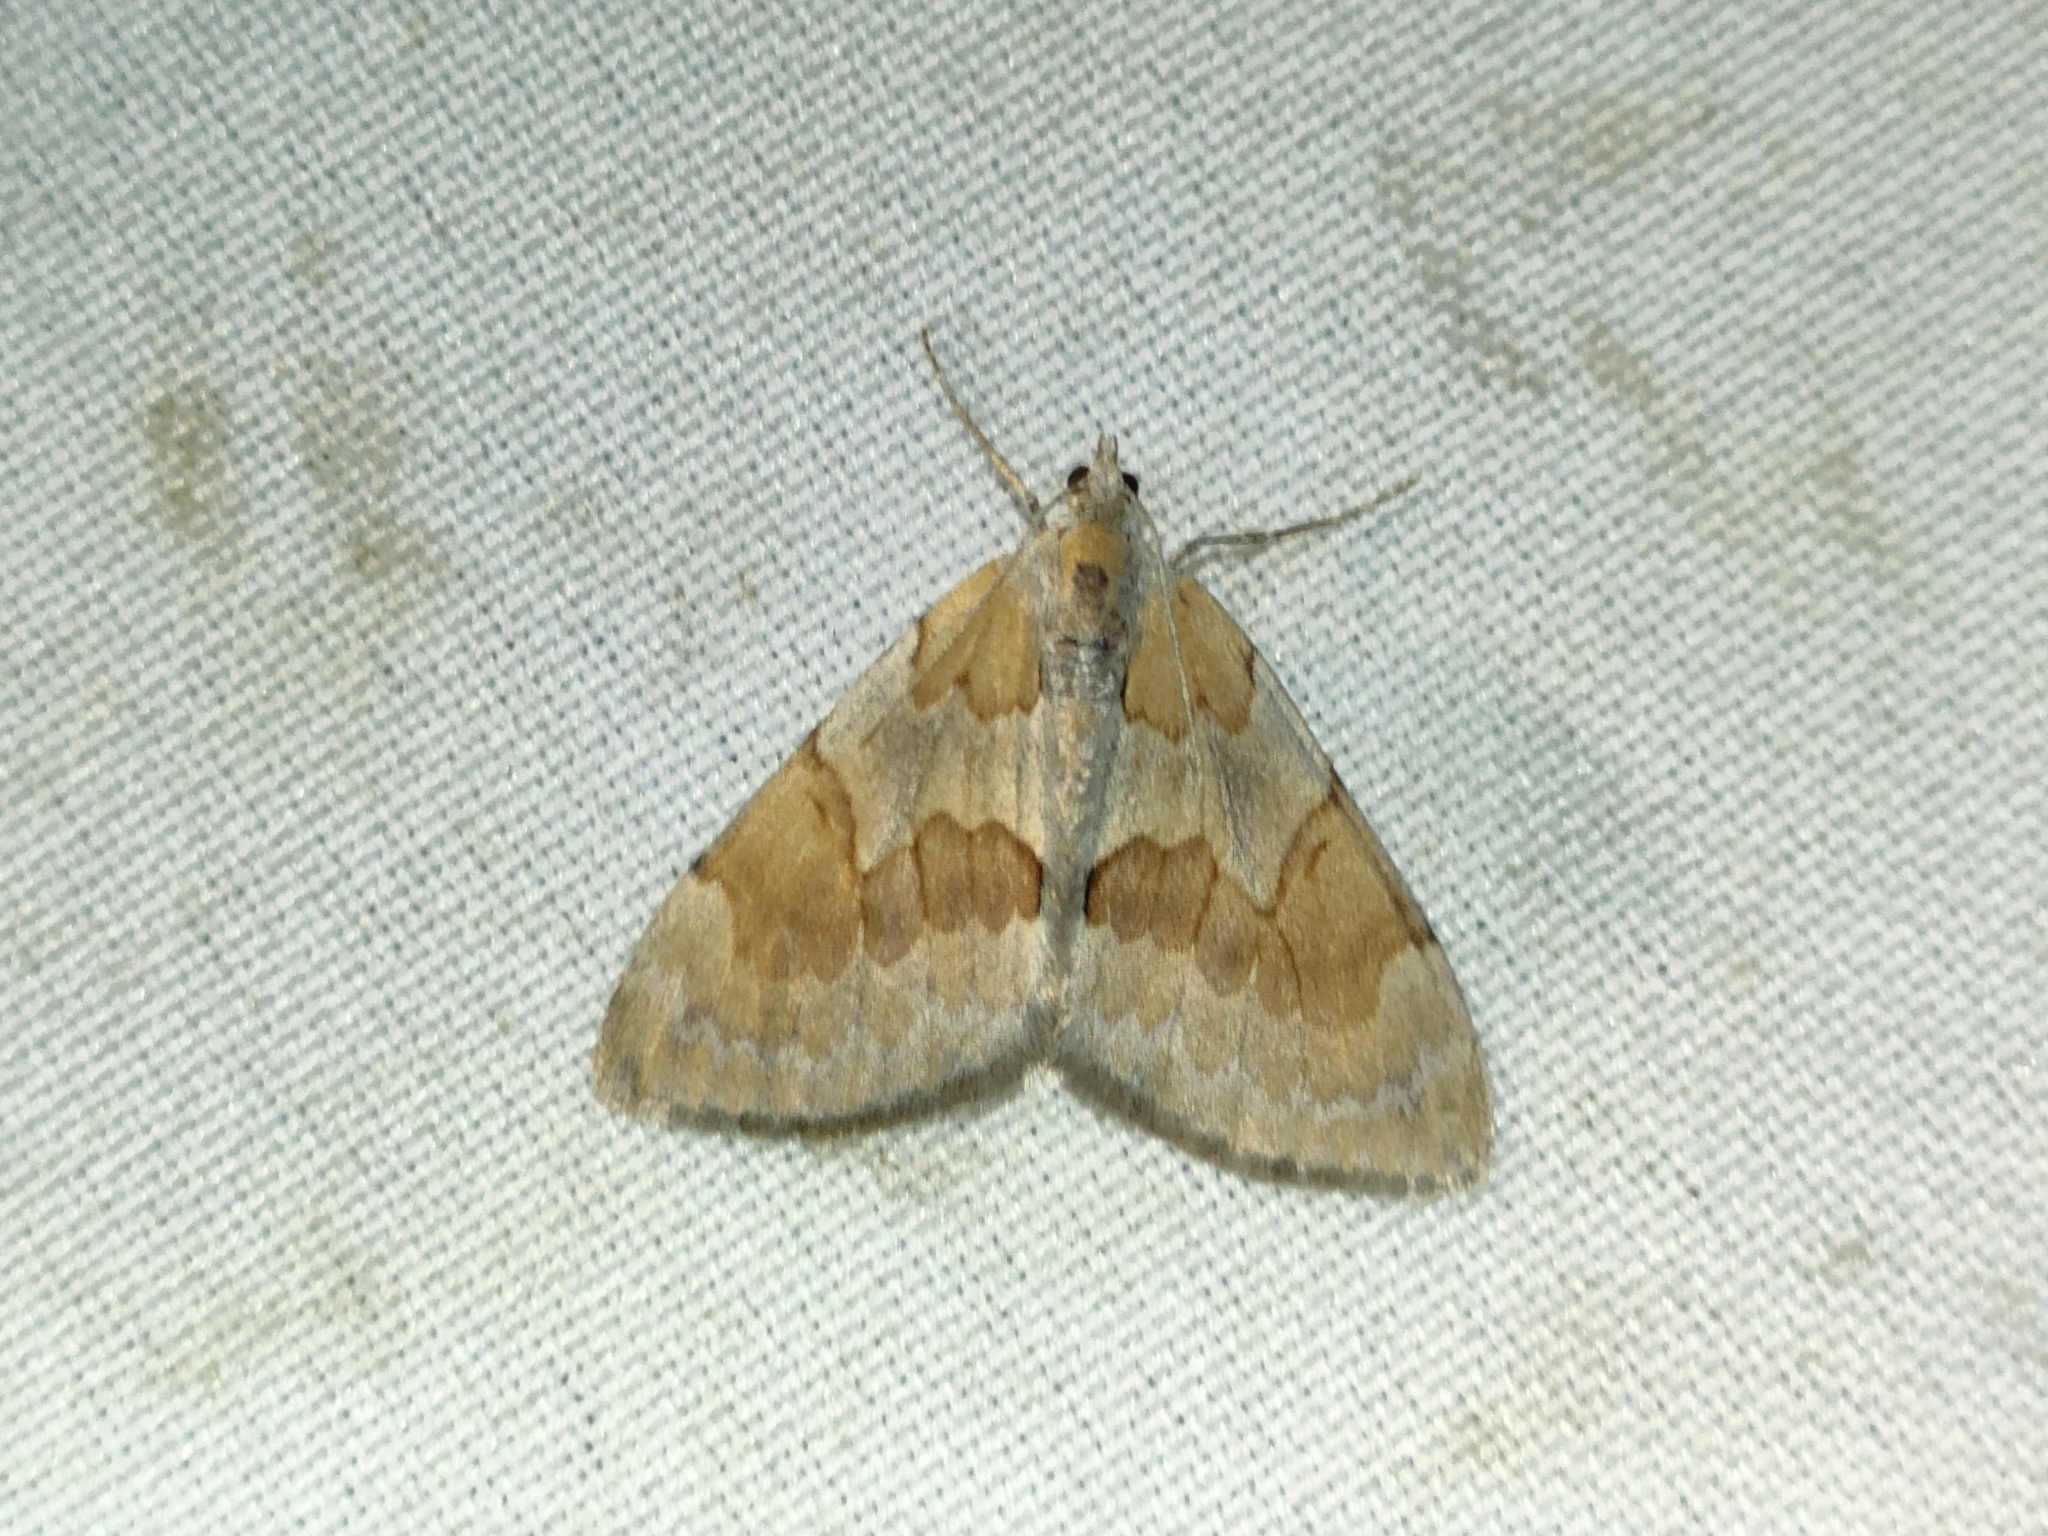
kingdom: Animalia
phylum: Arthropoda
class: Insecta
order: Lepidoptera
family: Geometridae
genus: Pennithera
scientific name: Pennithera firmata
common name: Pine carpet
